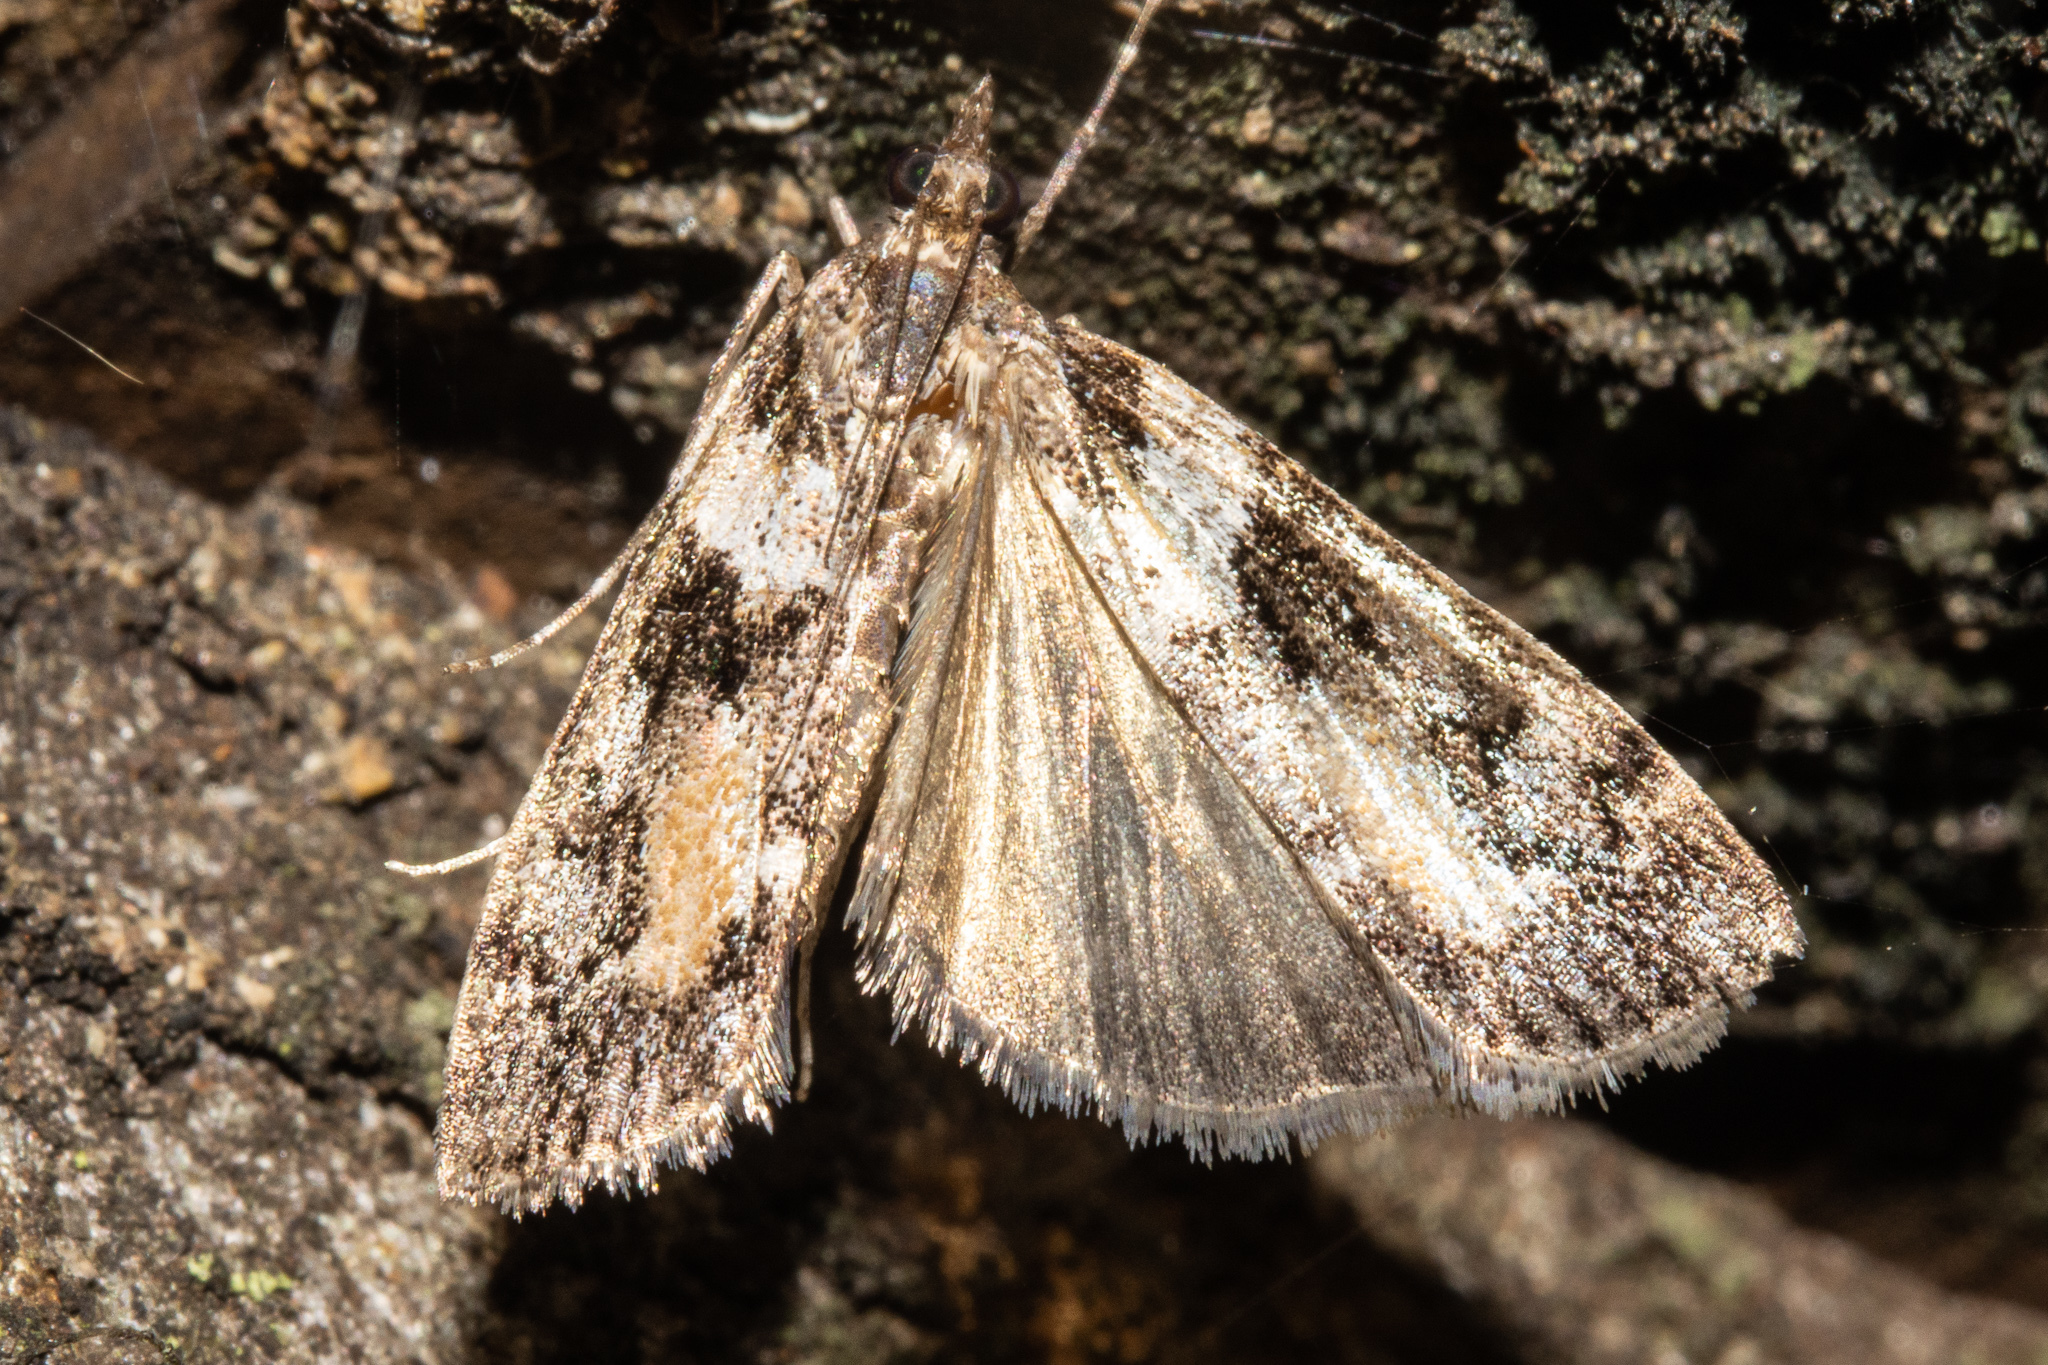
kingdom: Animalia
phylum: Arthropoda
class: Insecta
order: Lepidoptera
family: Crambidae
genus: Eudonia
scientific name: Eudonia submarginalis
